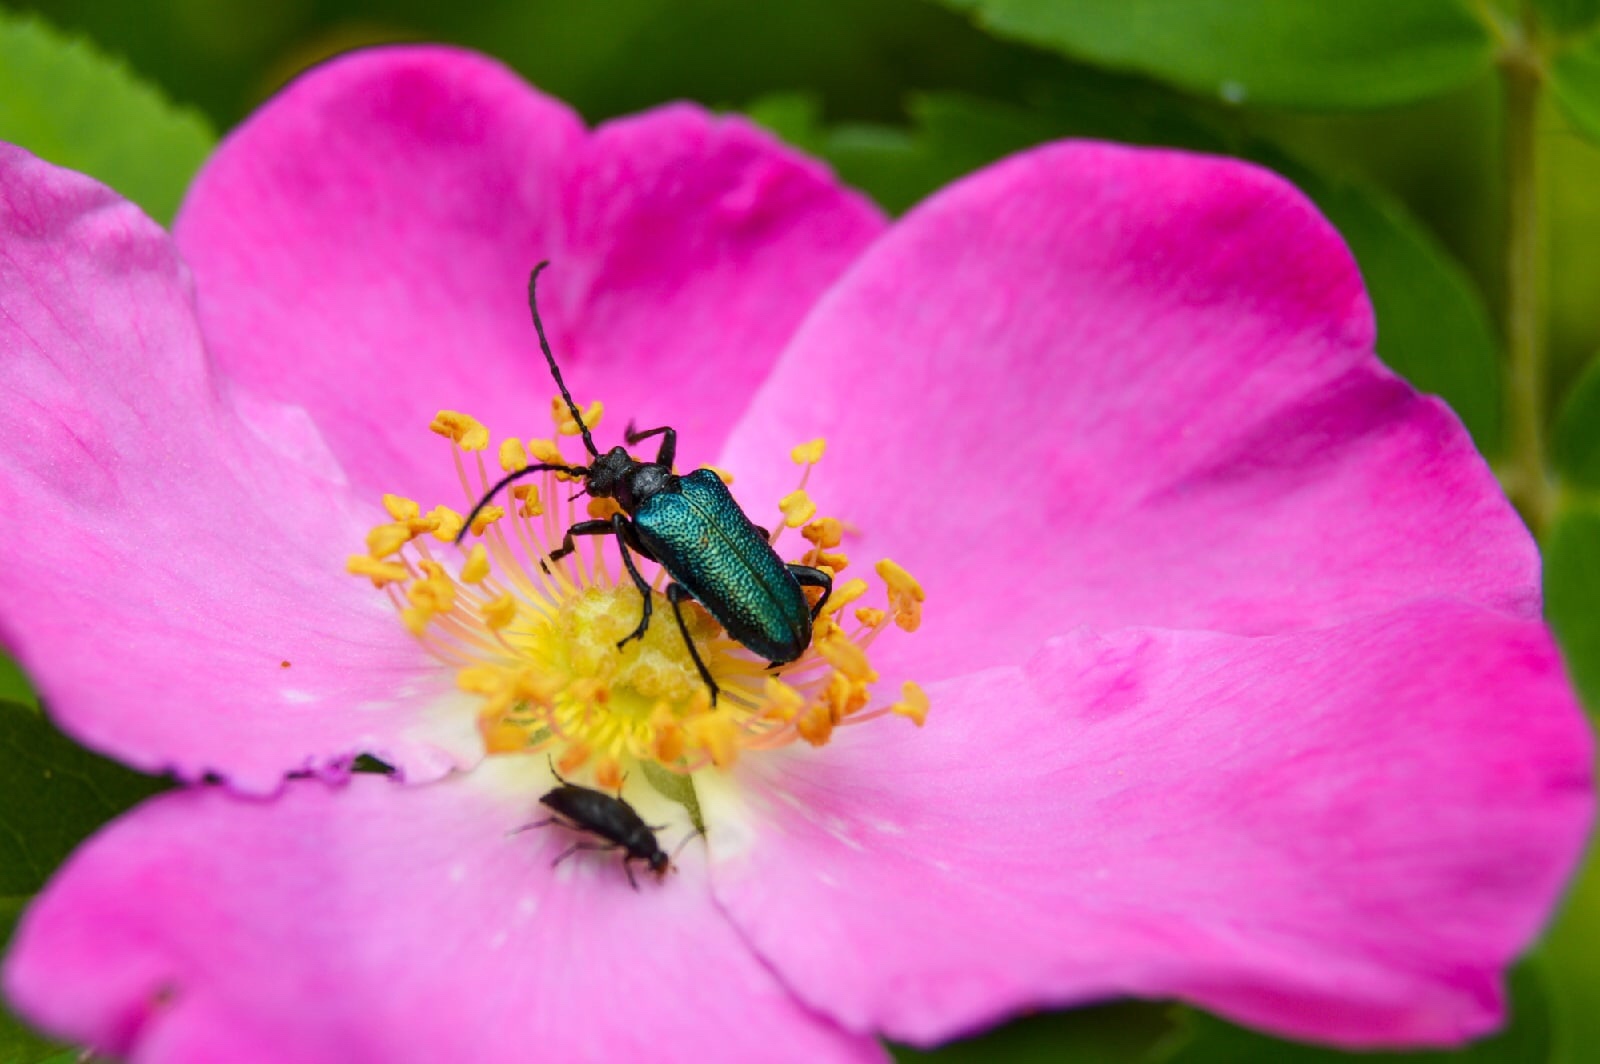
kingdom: Animalia
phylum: Arthropoda
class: Insecta
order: Coleoptera
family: Cerambycidae
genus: Gaurotes
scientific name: Gaurotes virginea
